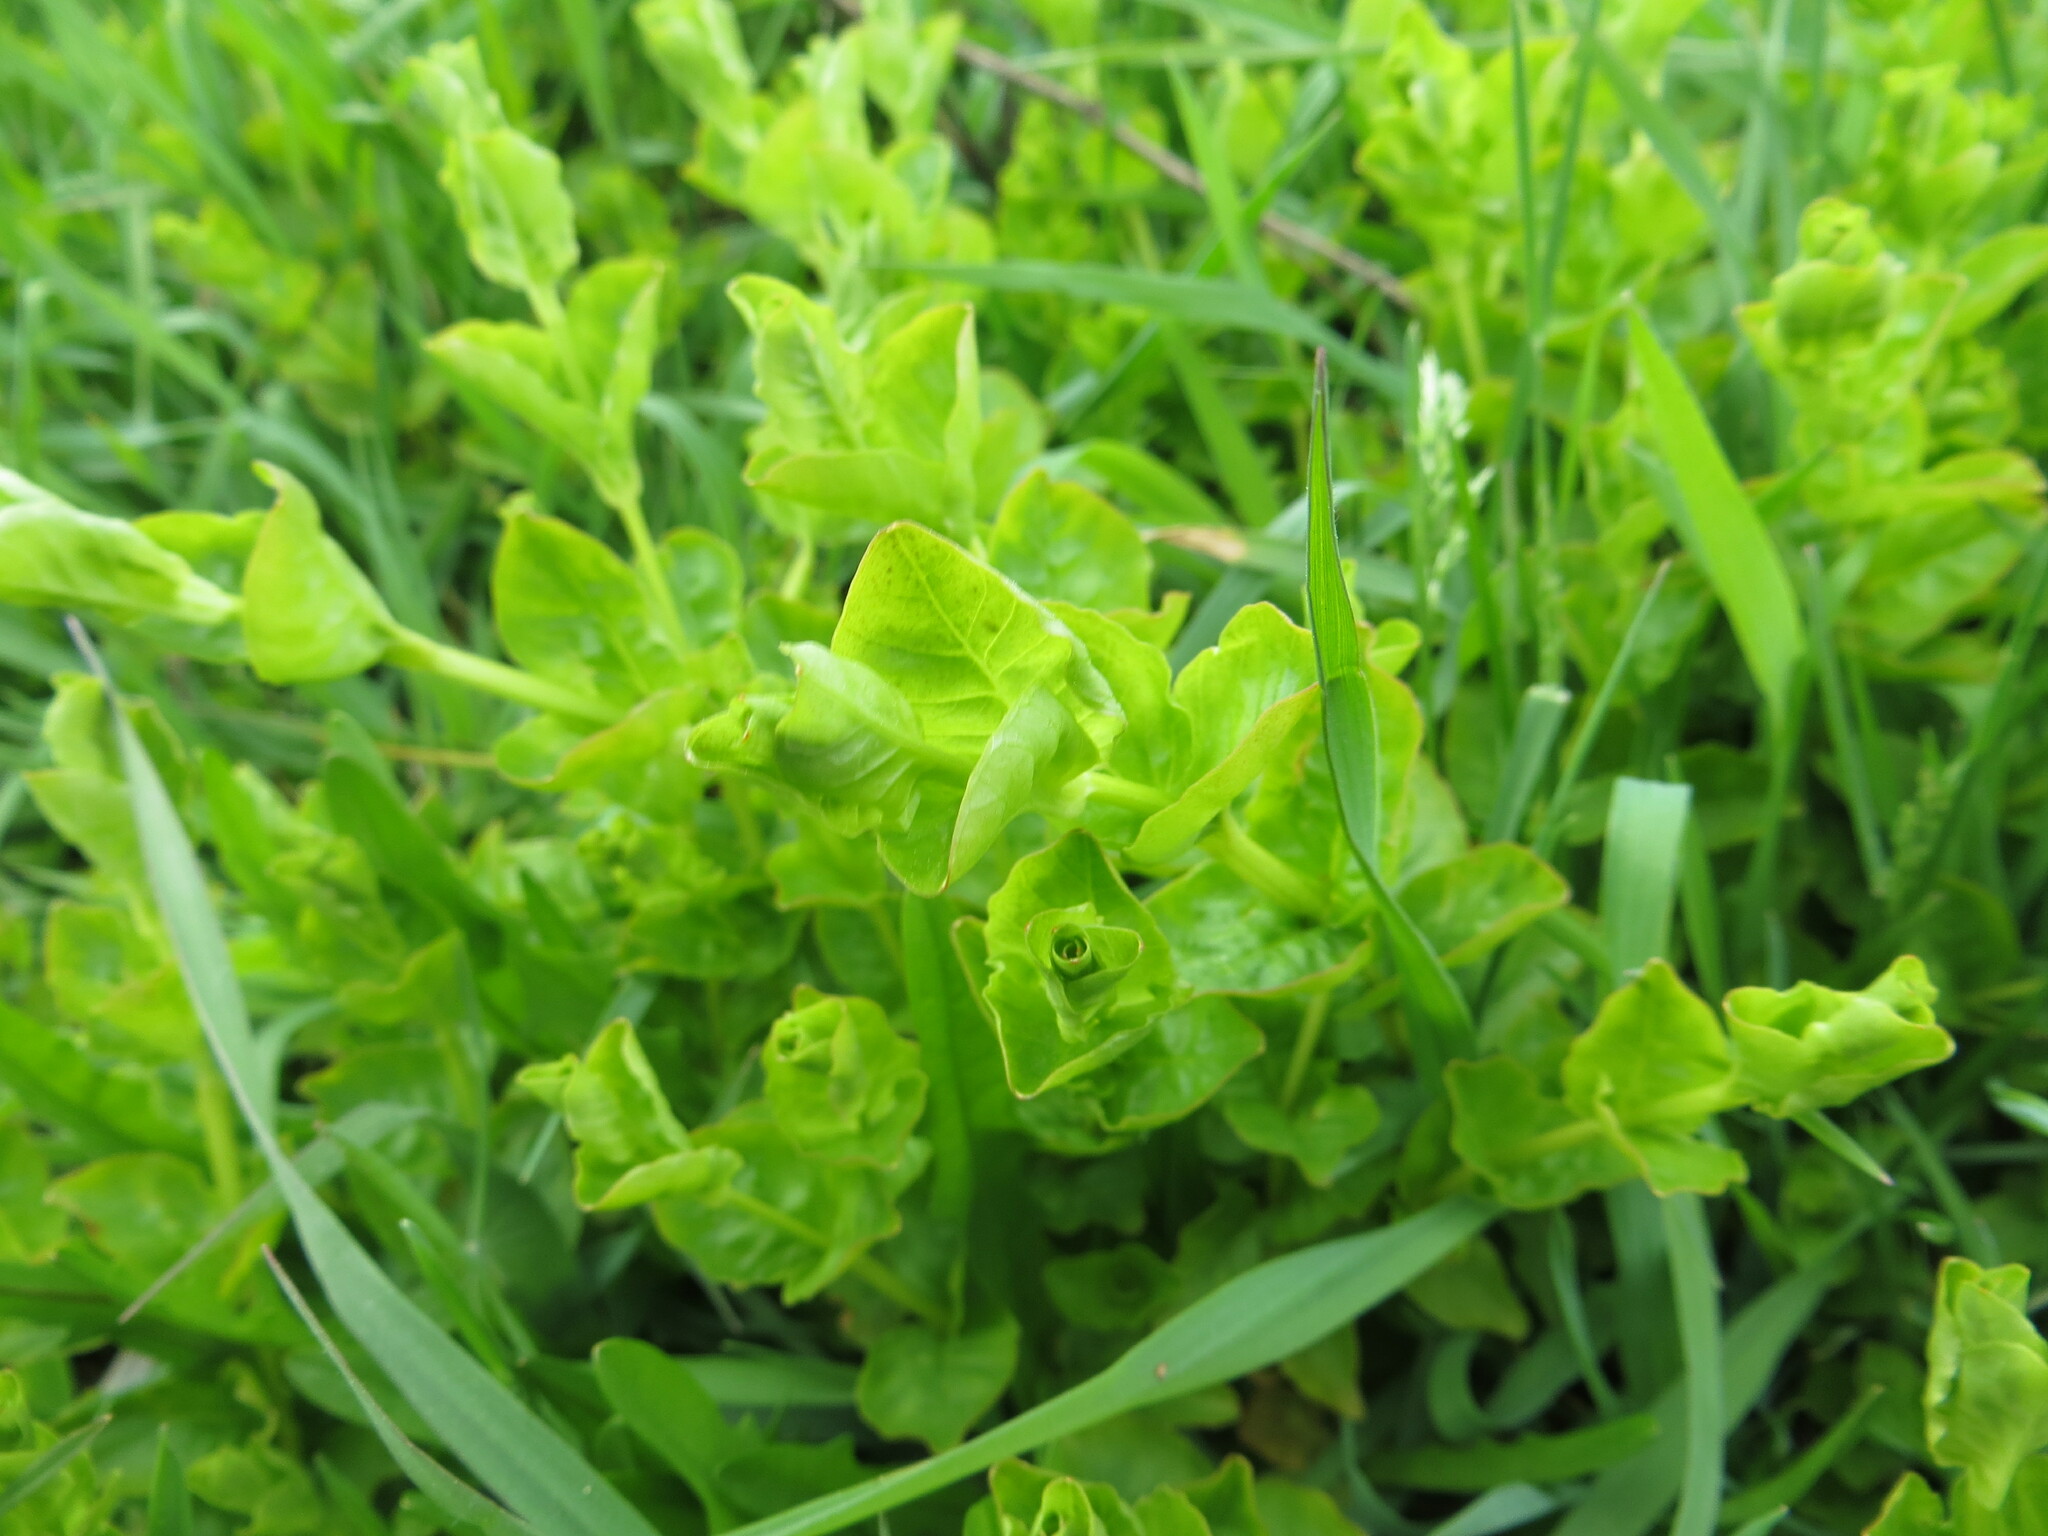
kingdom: Plantae
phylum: Tracheophyta
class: Magnoliopsida
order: Ericales
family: Primulaceae
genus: Lysimachia
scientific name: Lysimachia nummularia
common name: Moneywort
